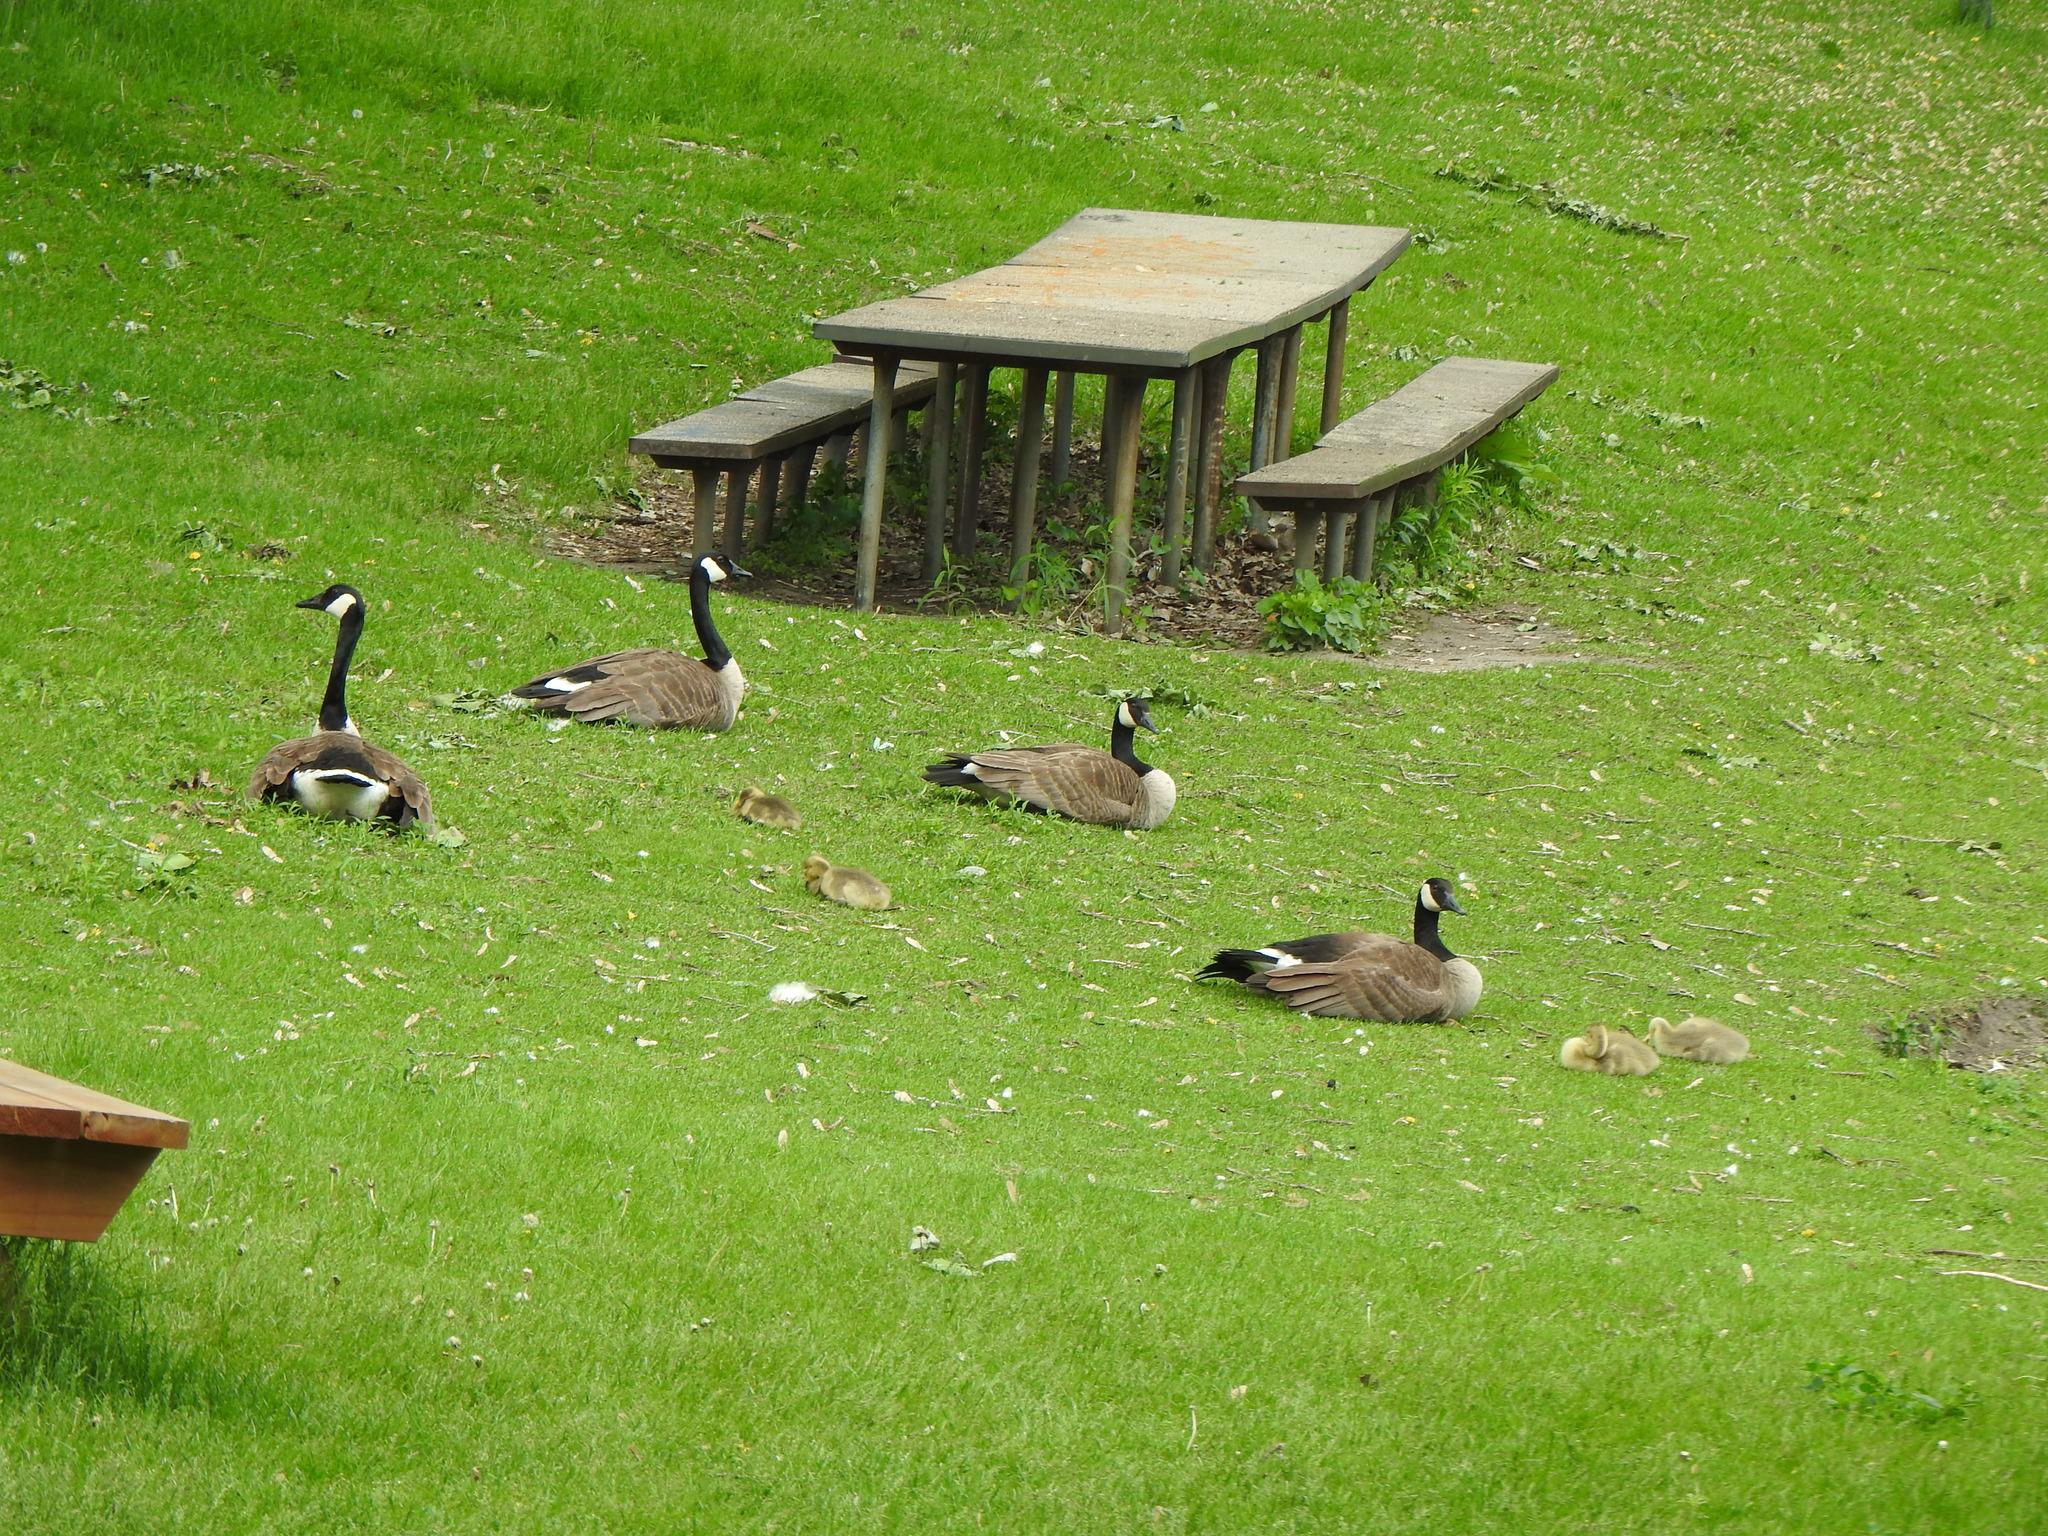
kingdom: Animalia
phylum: Chordata
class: Aves
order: Anseriformes
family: Anatidae
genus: Branta
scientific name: Branta canadensis
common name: Canada goose
